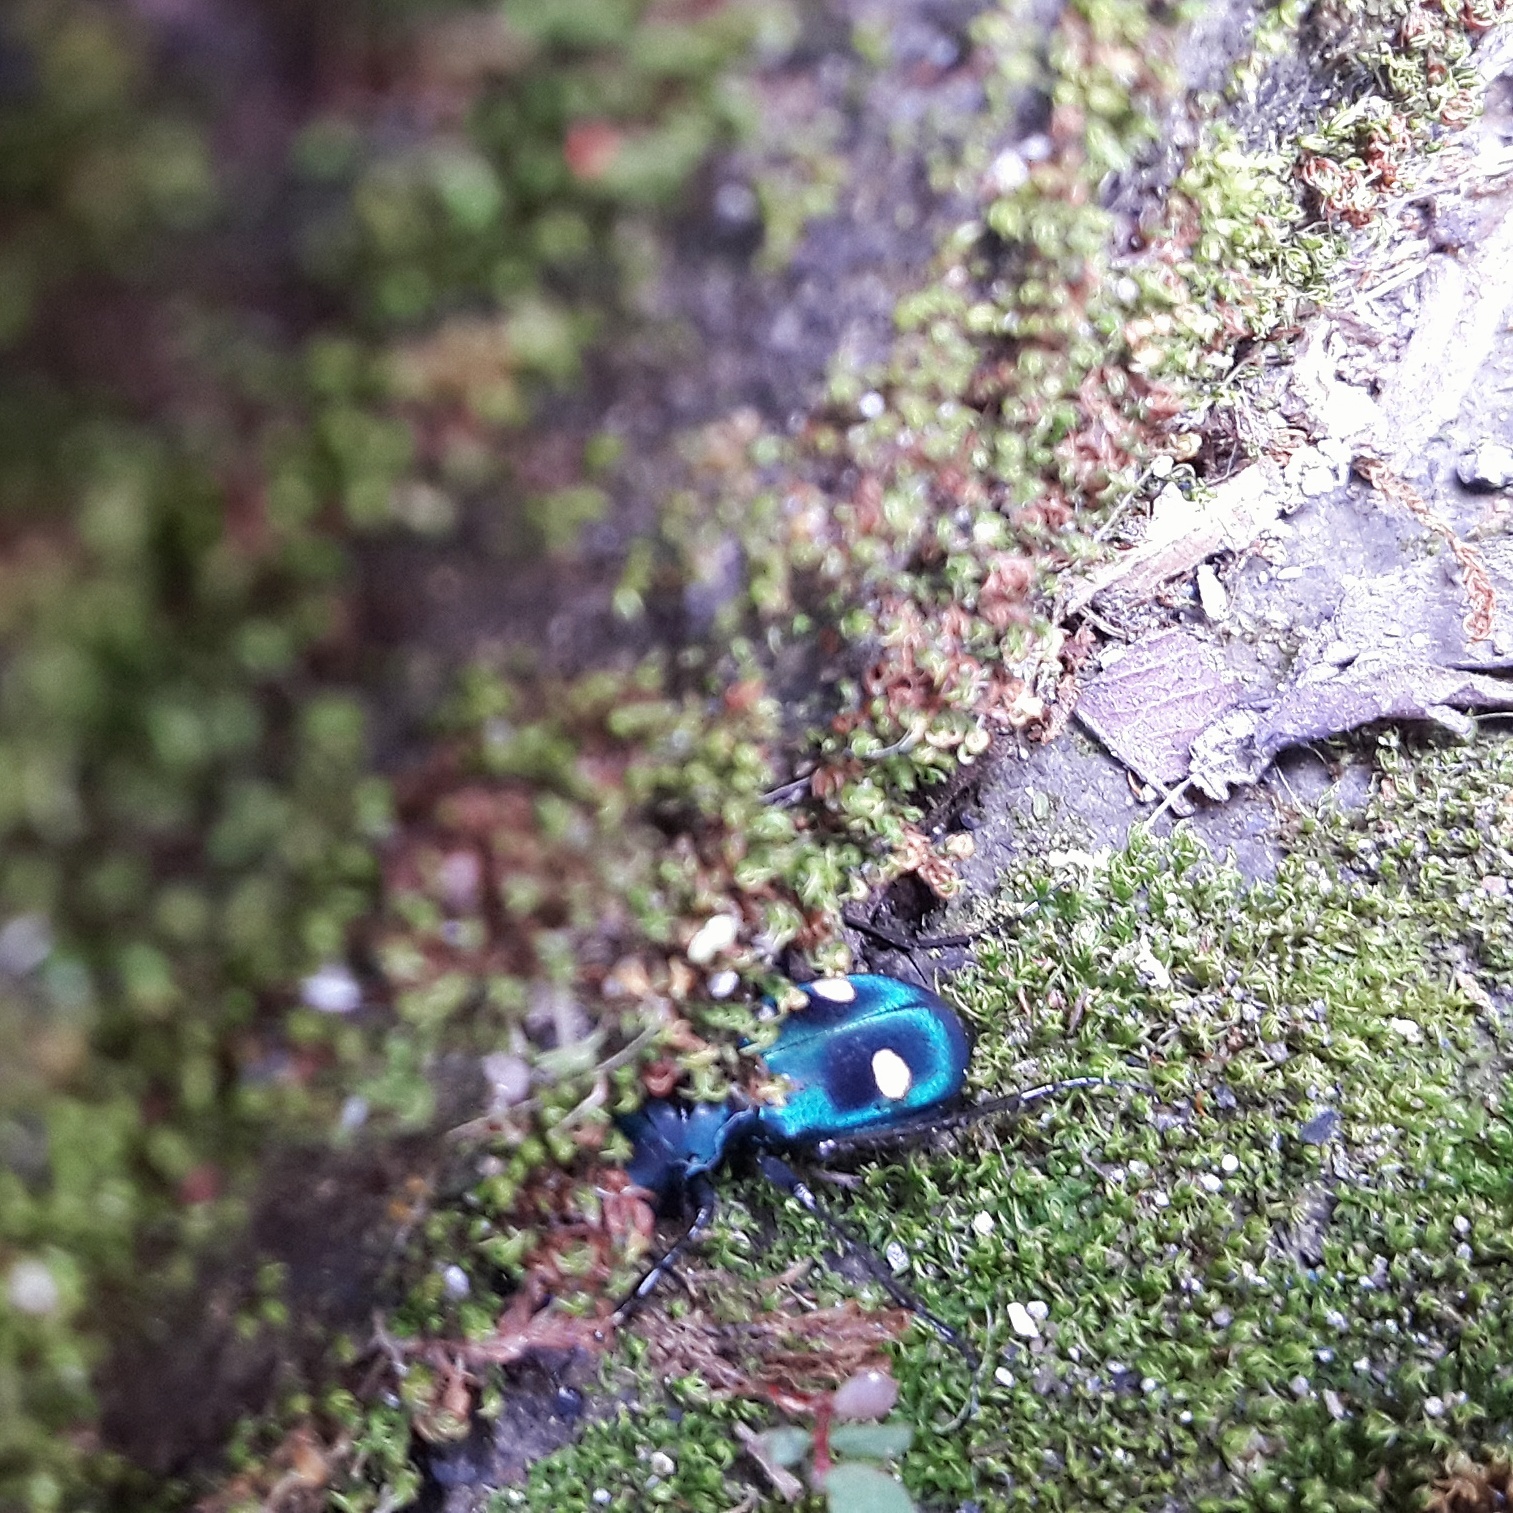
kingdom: Animalia
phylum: Arthropoda
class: Insecta
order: Coleoptera
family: Carabidae
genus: Pseudoxycheila
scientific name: Pseudoxycheila tarsalis
